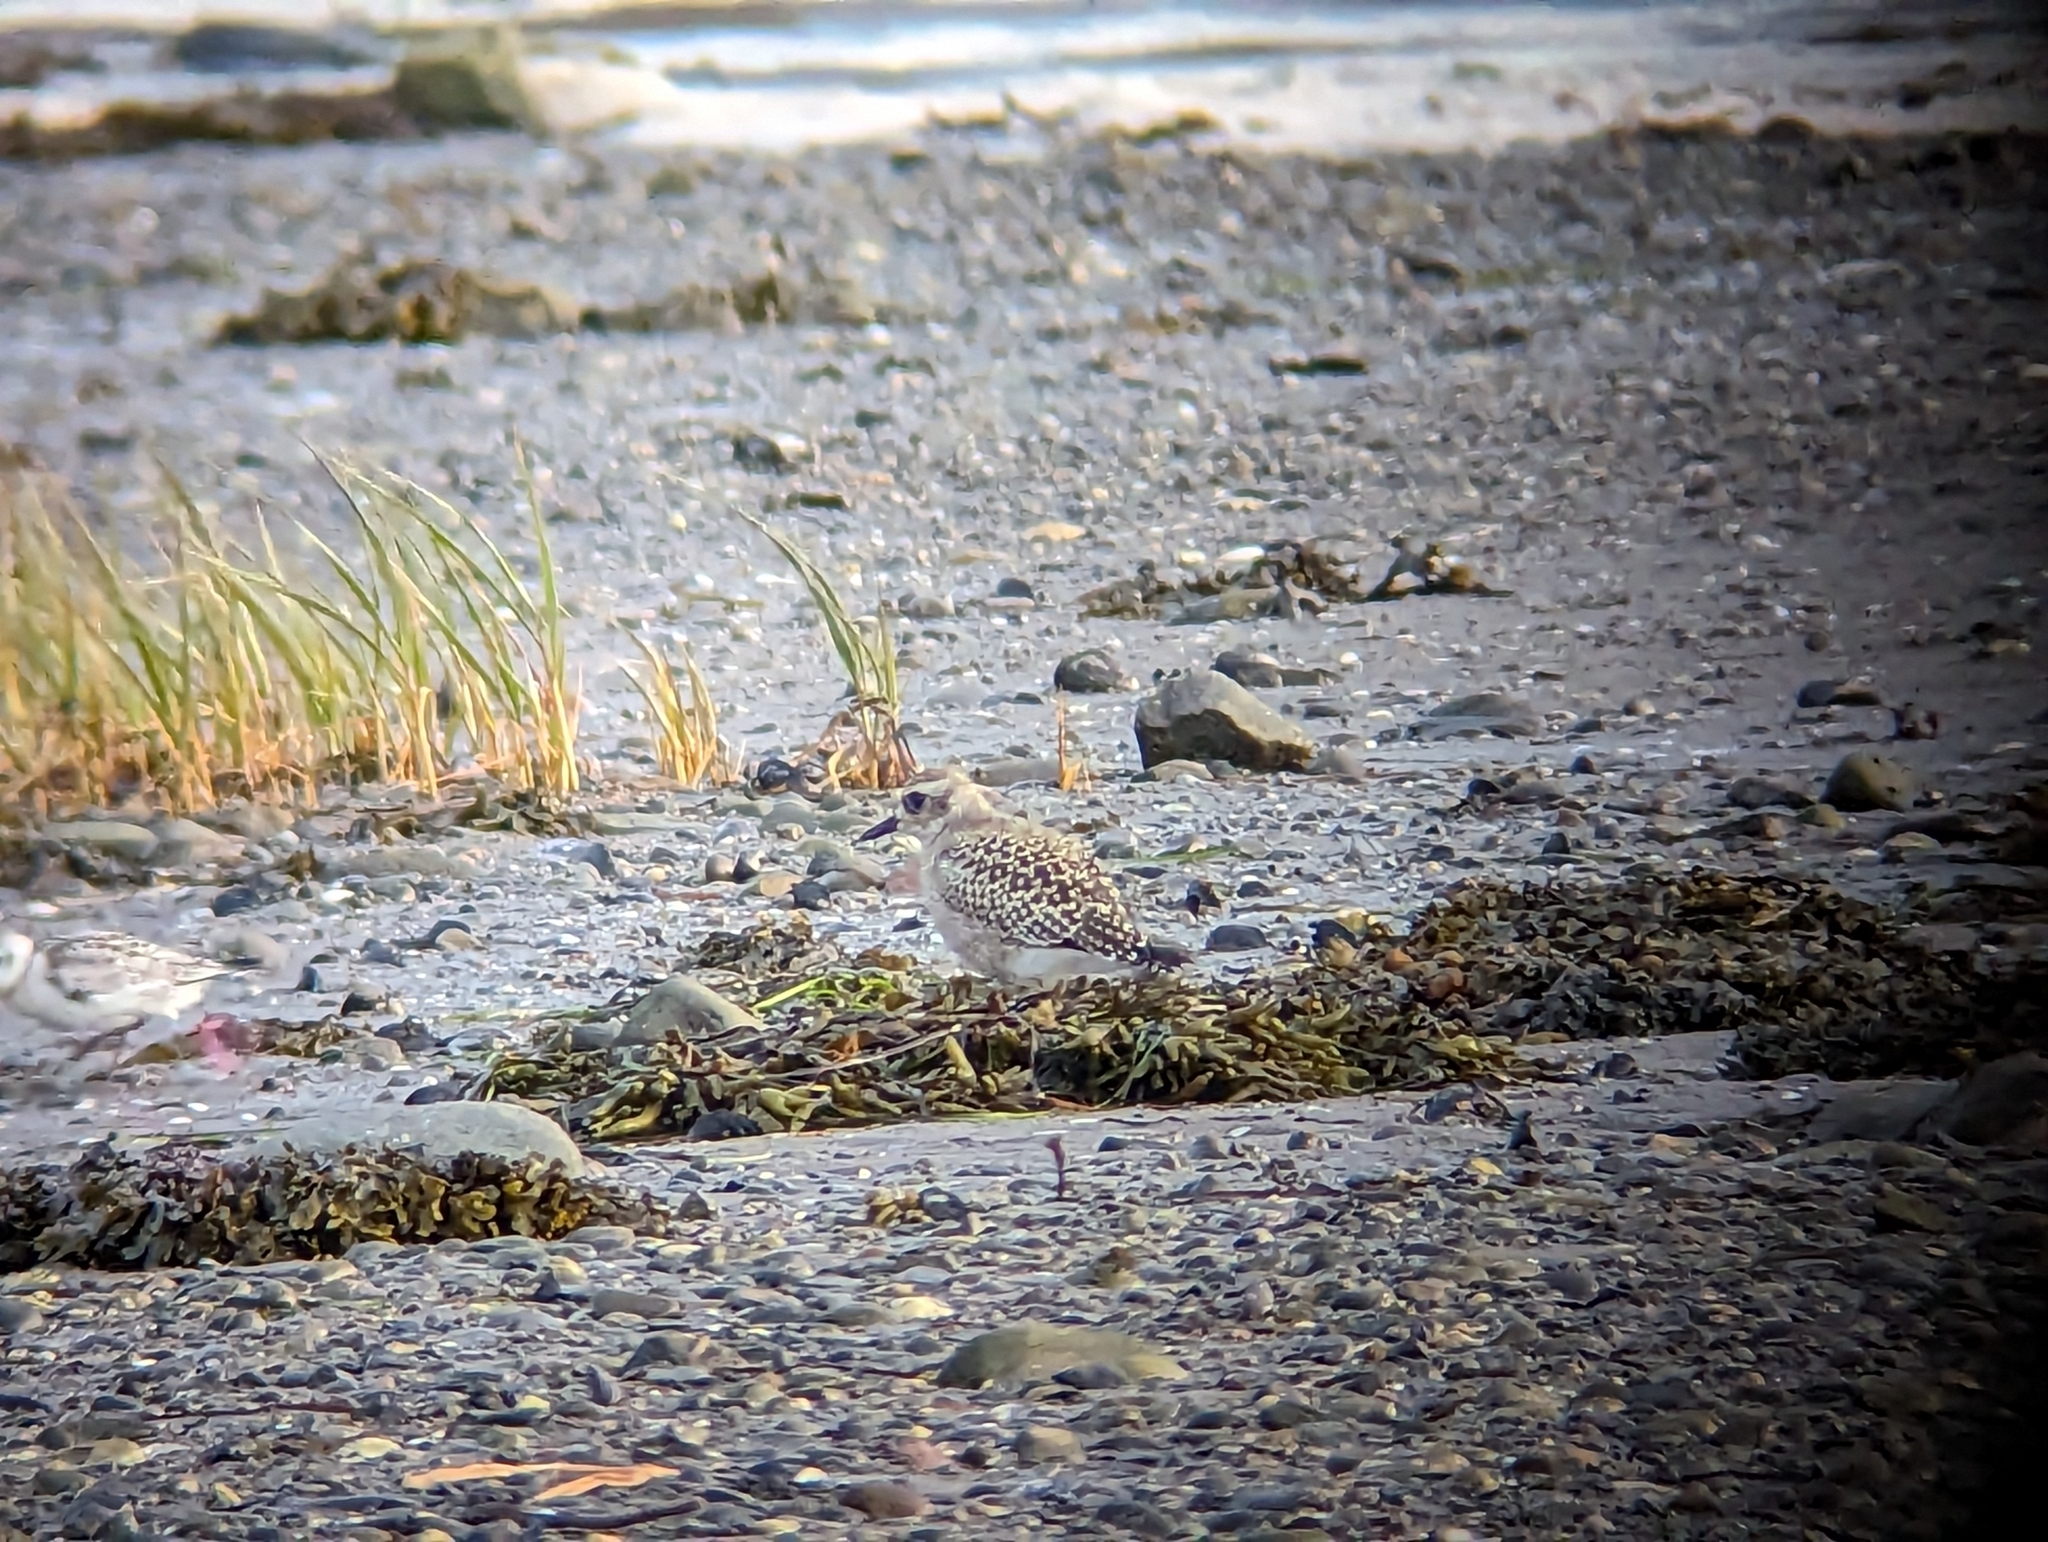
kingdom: Animalia
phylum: Chordata
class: Aves
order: Charadriiformes
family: Charadriidae
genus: Pluvialis
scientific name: Pluvialis squatarola
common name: Grey plover
